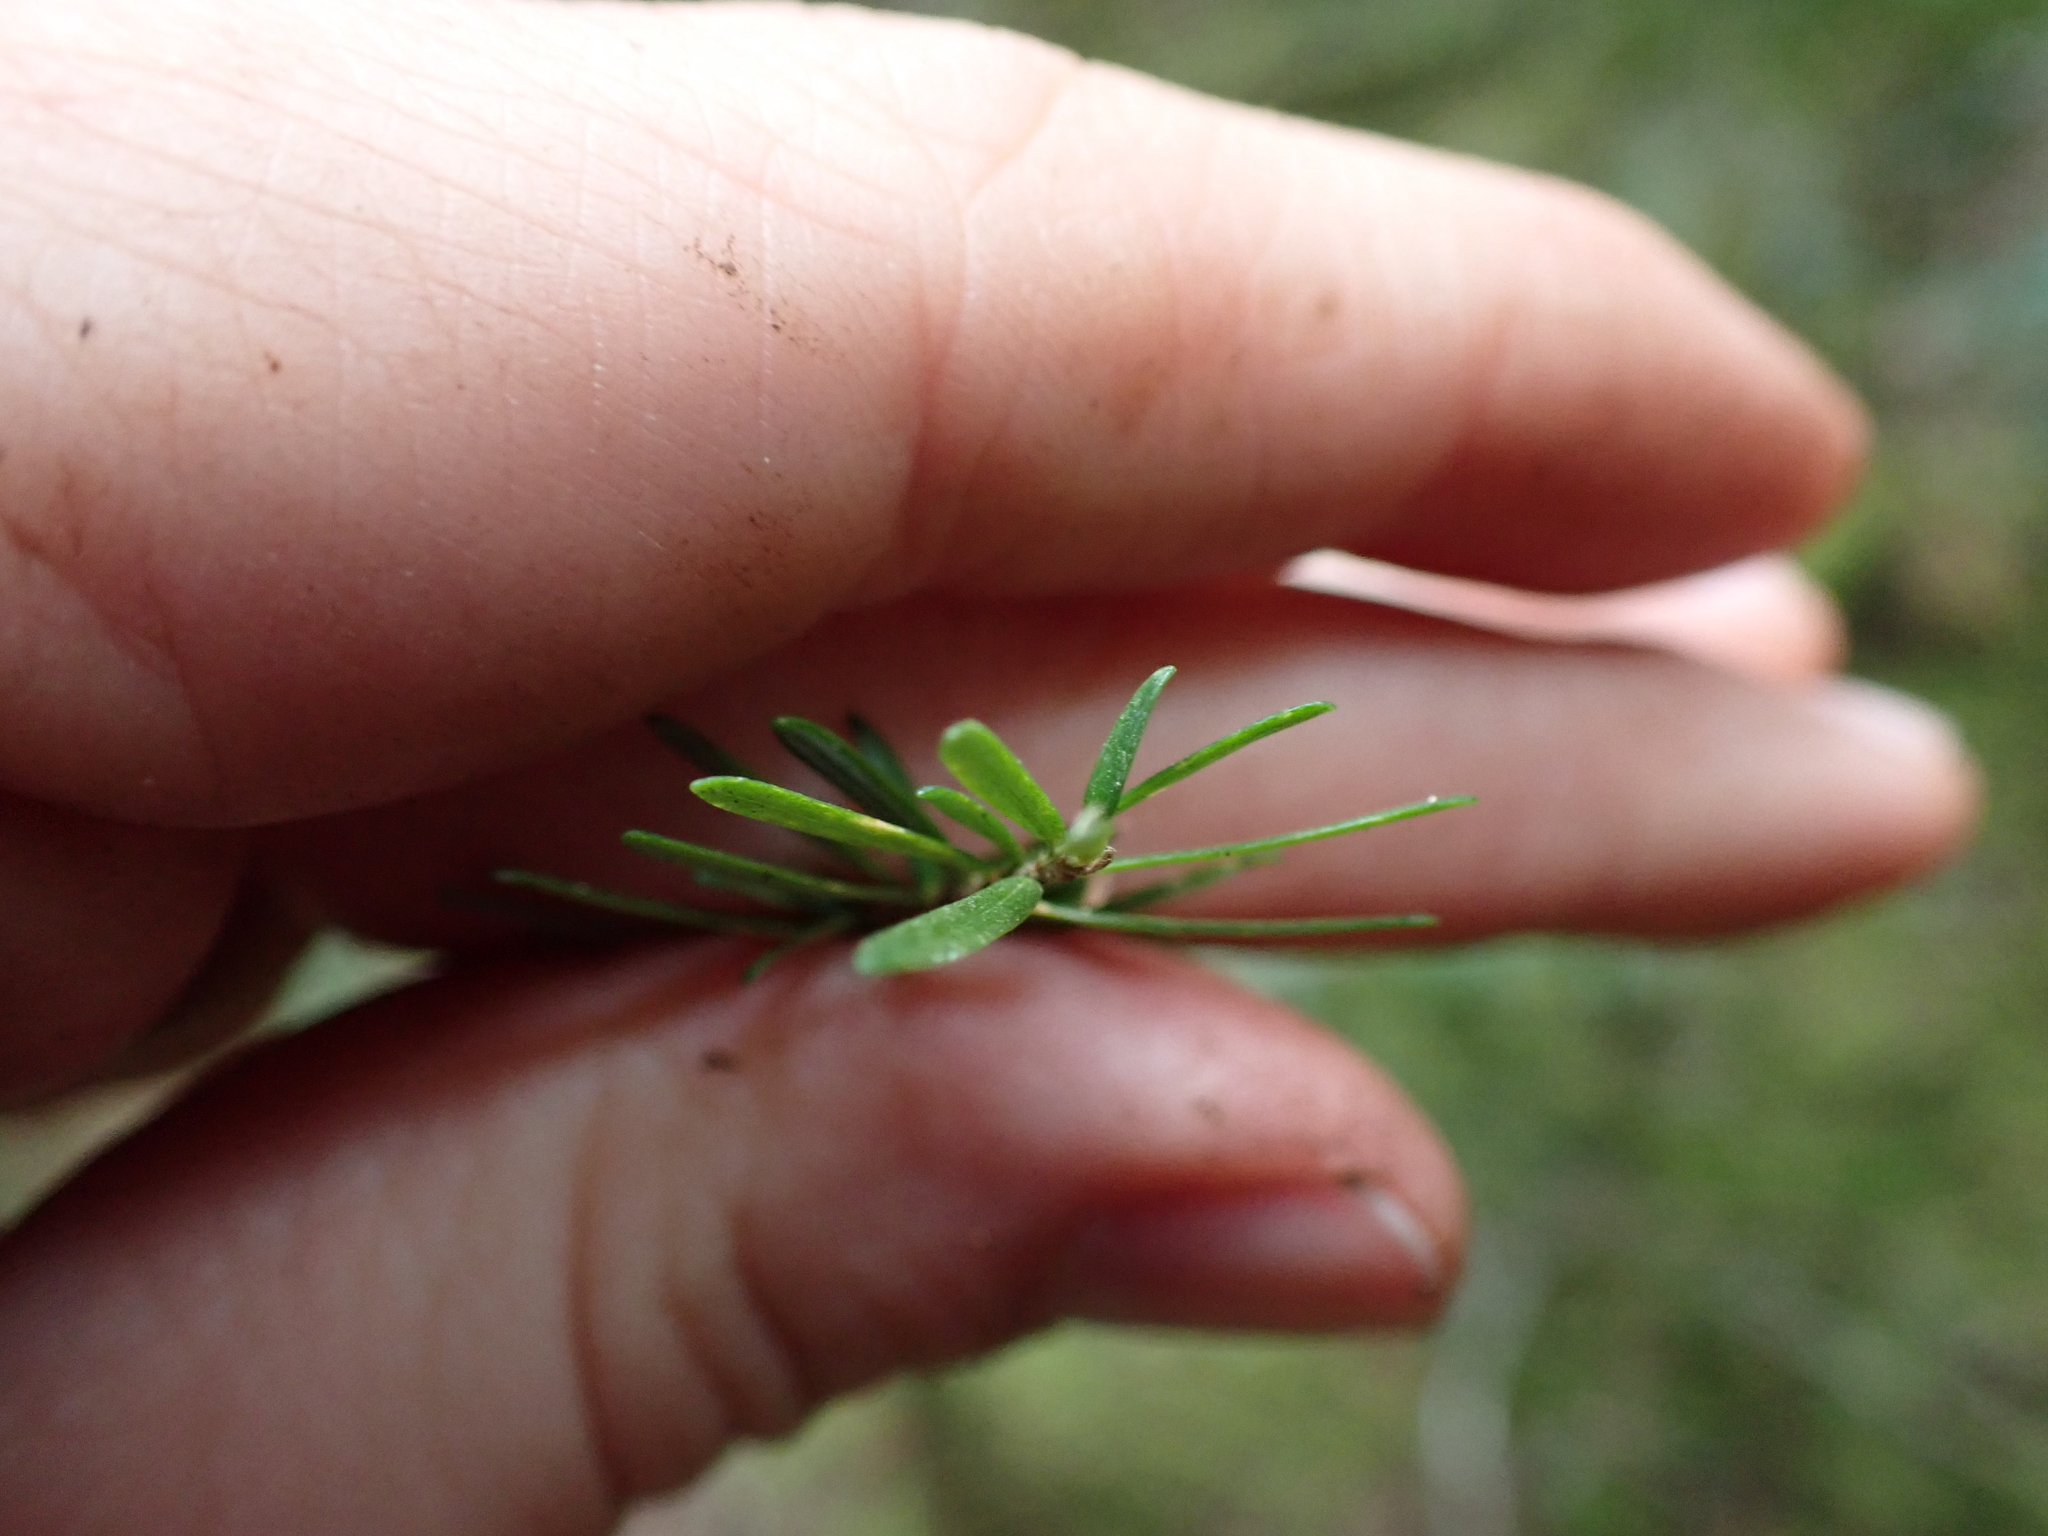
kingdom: Plantae
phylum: Tracheophyta
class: Pinopsida
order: Pinales
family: Pinaceae
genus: Tsuga
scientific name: Tsuga heterophylla
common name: Western hemlock
